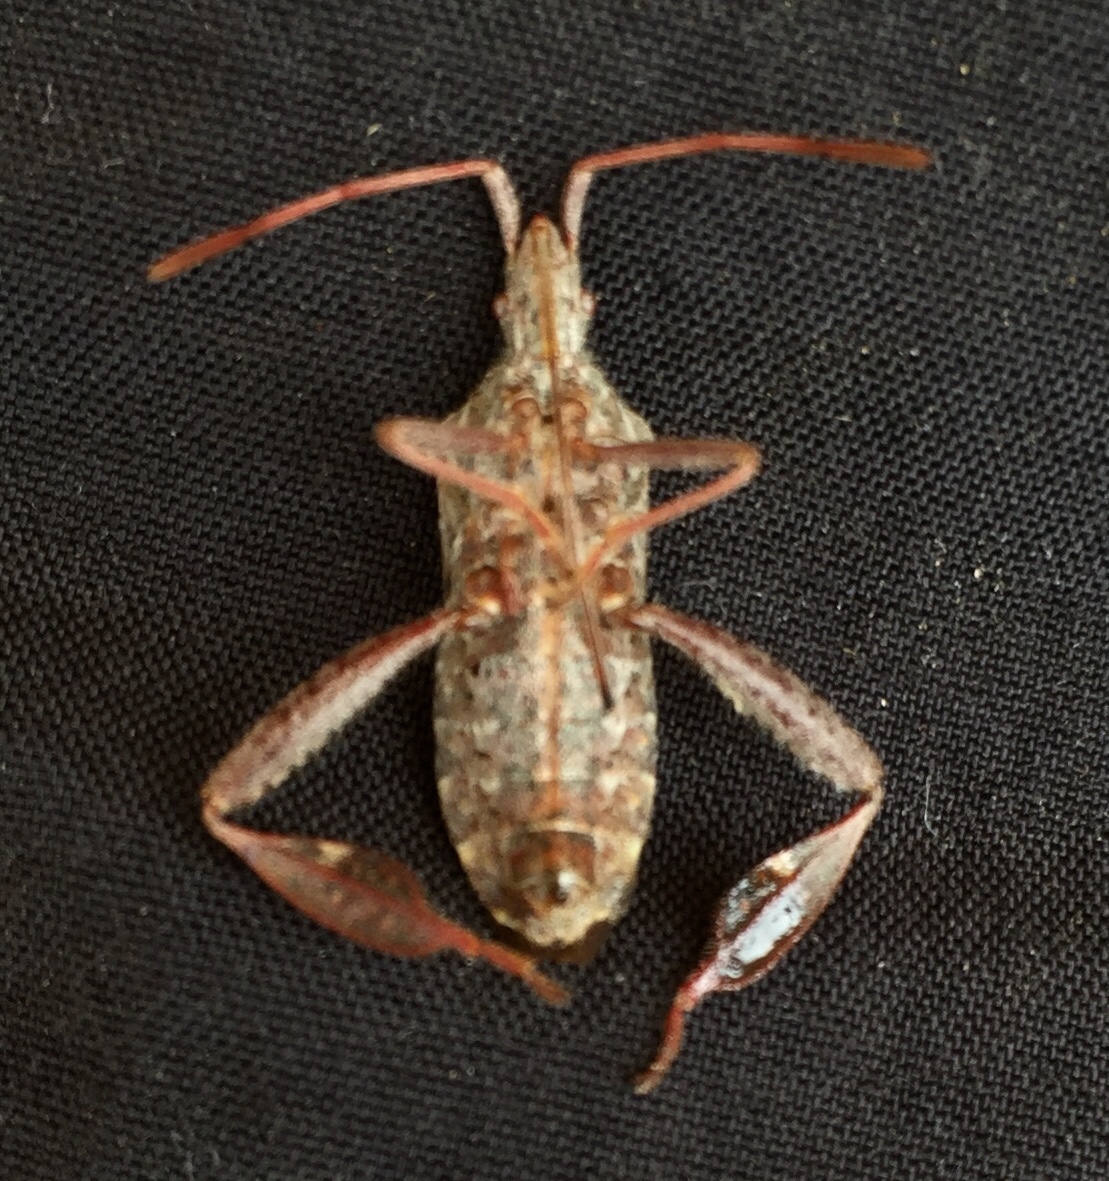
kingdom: Animalia
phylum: Arthropoda
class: Insecta
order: Hemiptera
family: Coreidae
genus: Leptoglossus
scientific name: Leptoglossus corculus
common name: Southern pine seed bug
